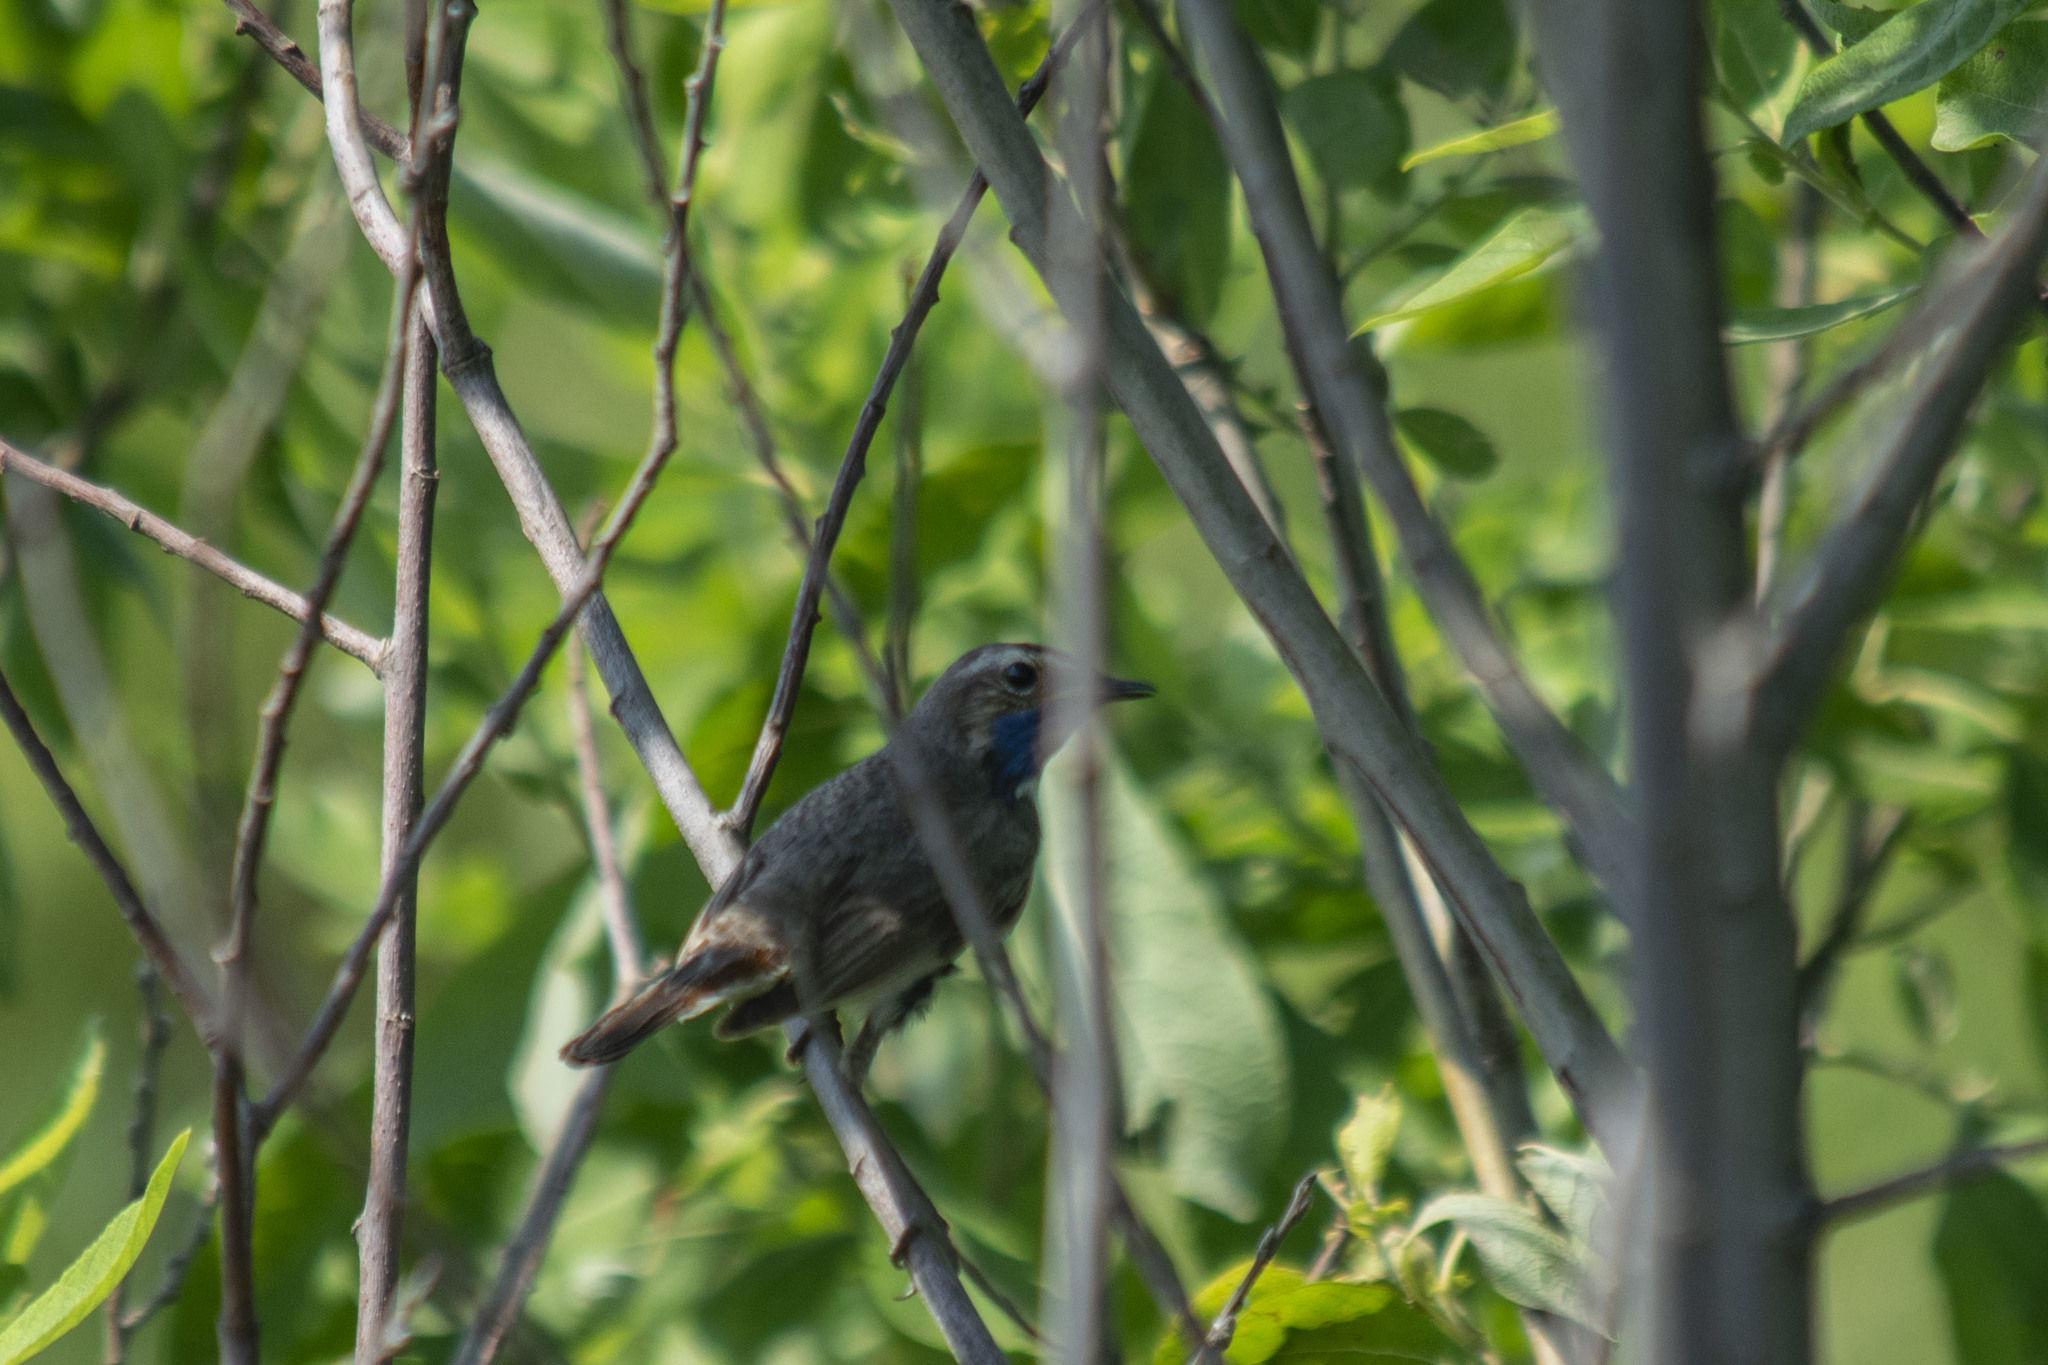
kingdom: Animalia
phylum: Chordata
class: Aves
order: Passeriformes
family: Muscicapidae
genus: Luscinia
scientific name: Luscinia svecica
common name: Bluethroat
